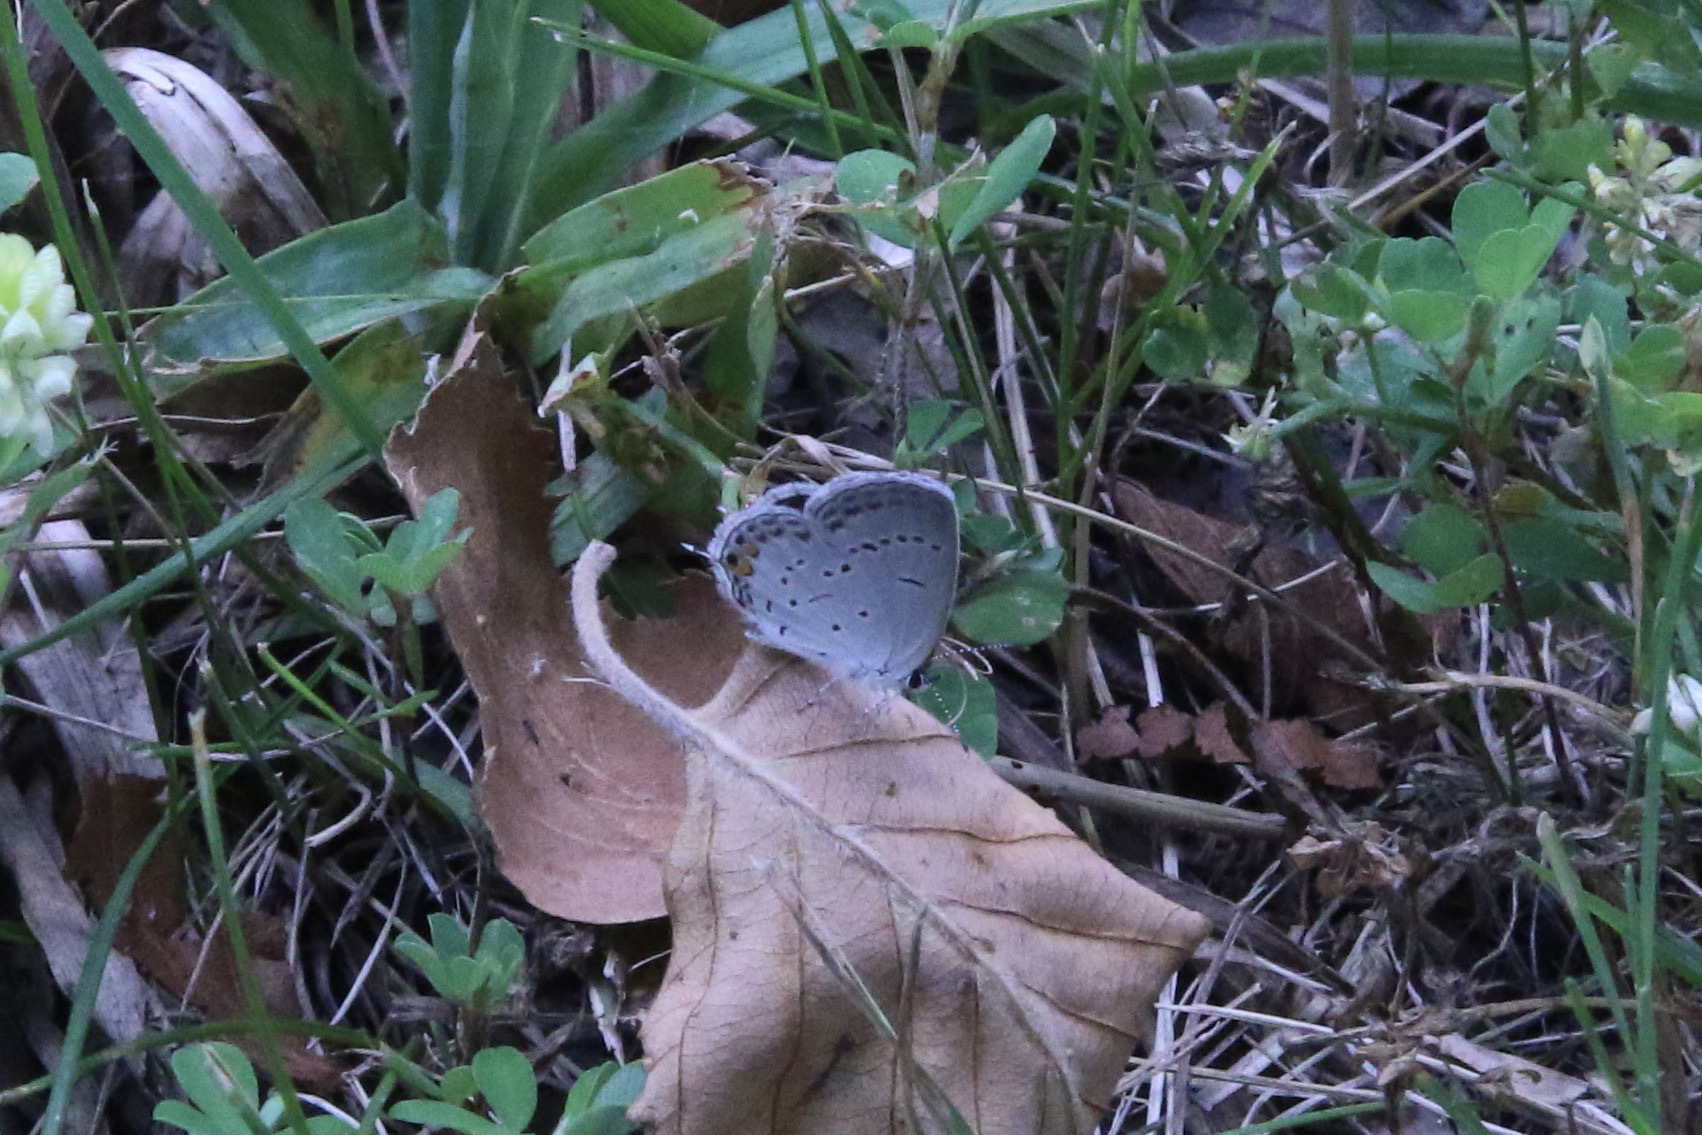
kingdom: Animalia
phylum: Arthropoda
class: Insecta
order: Lepidoptera
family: Lycaenidae
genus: Elkalyce
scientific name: Elkalyce comyntas
